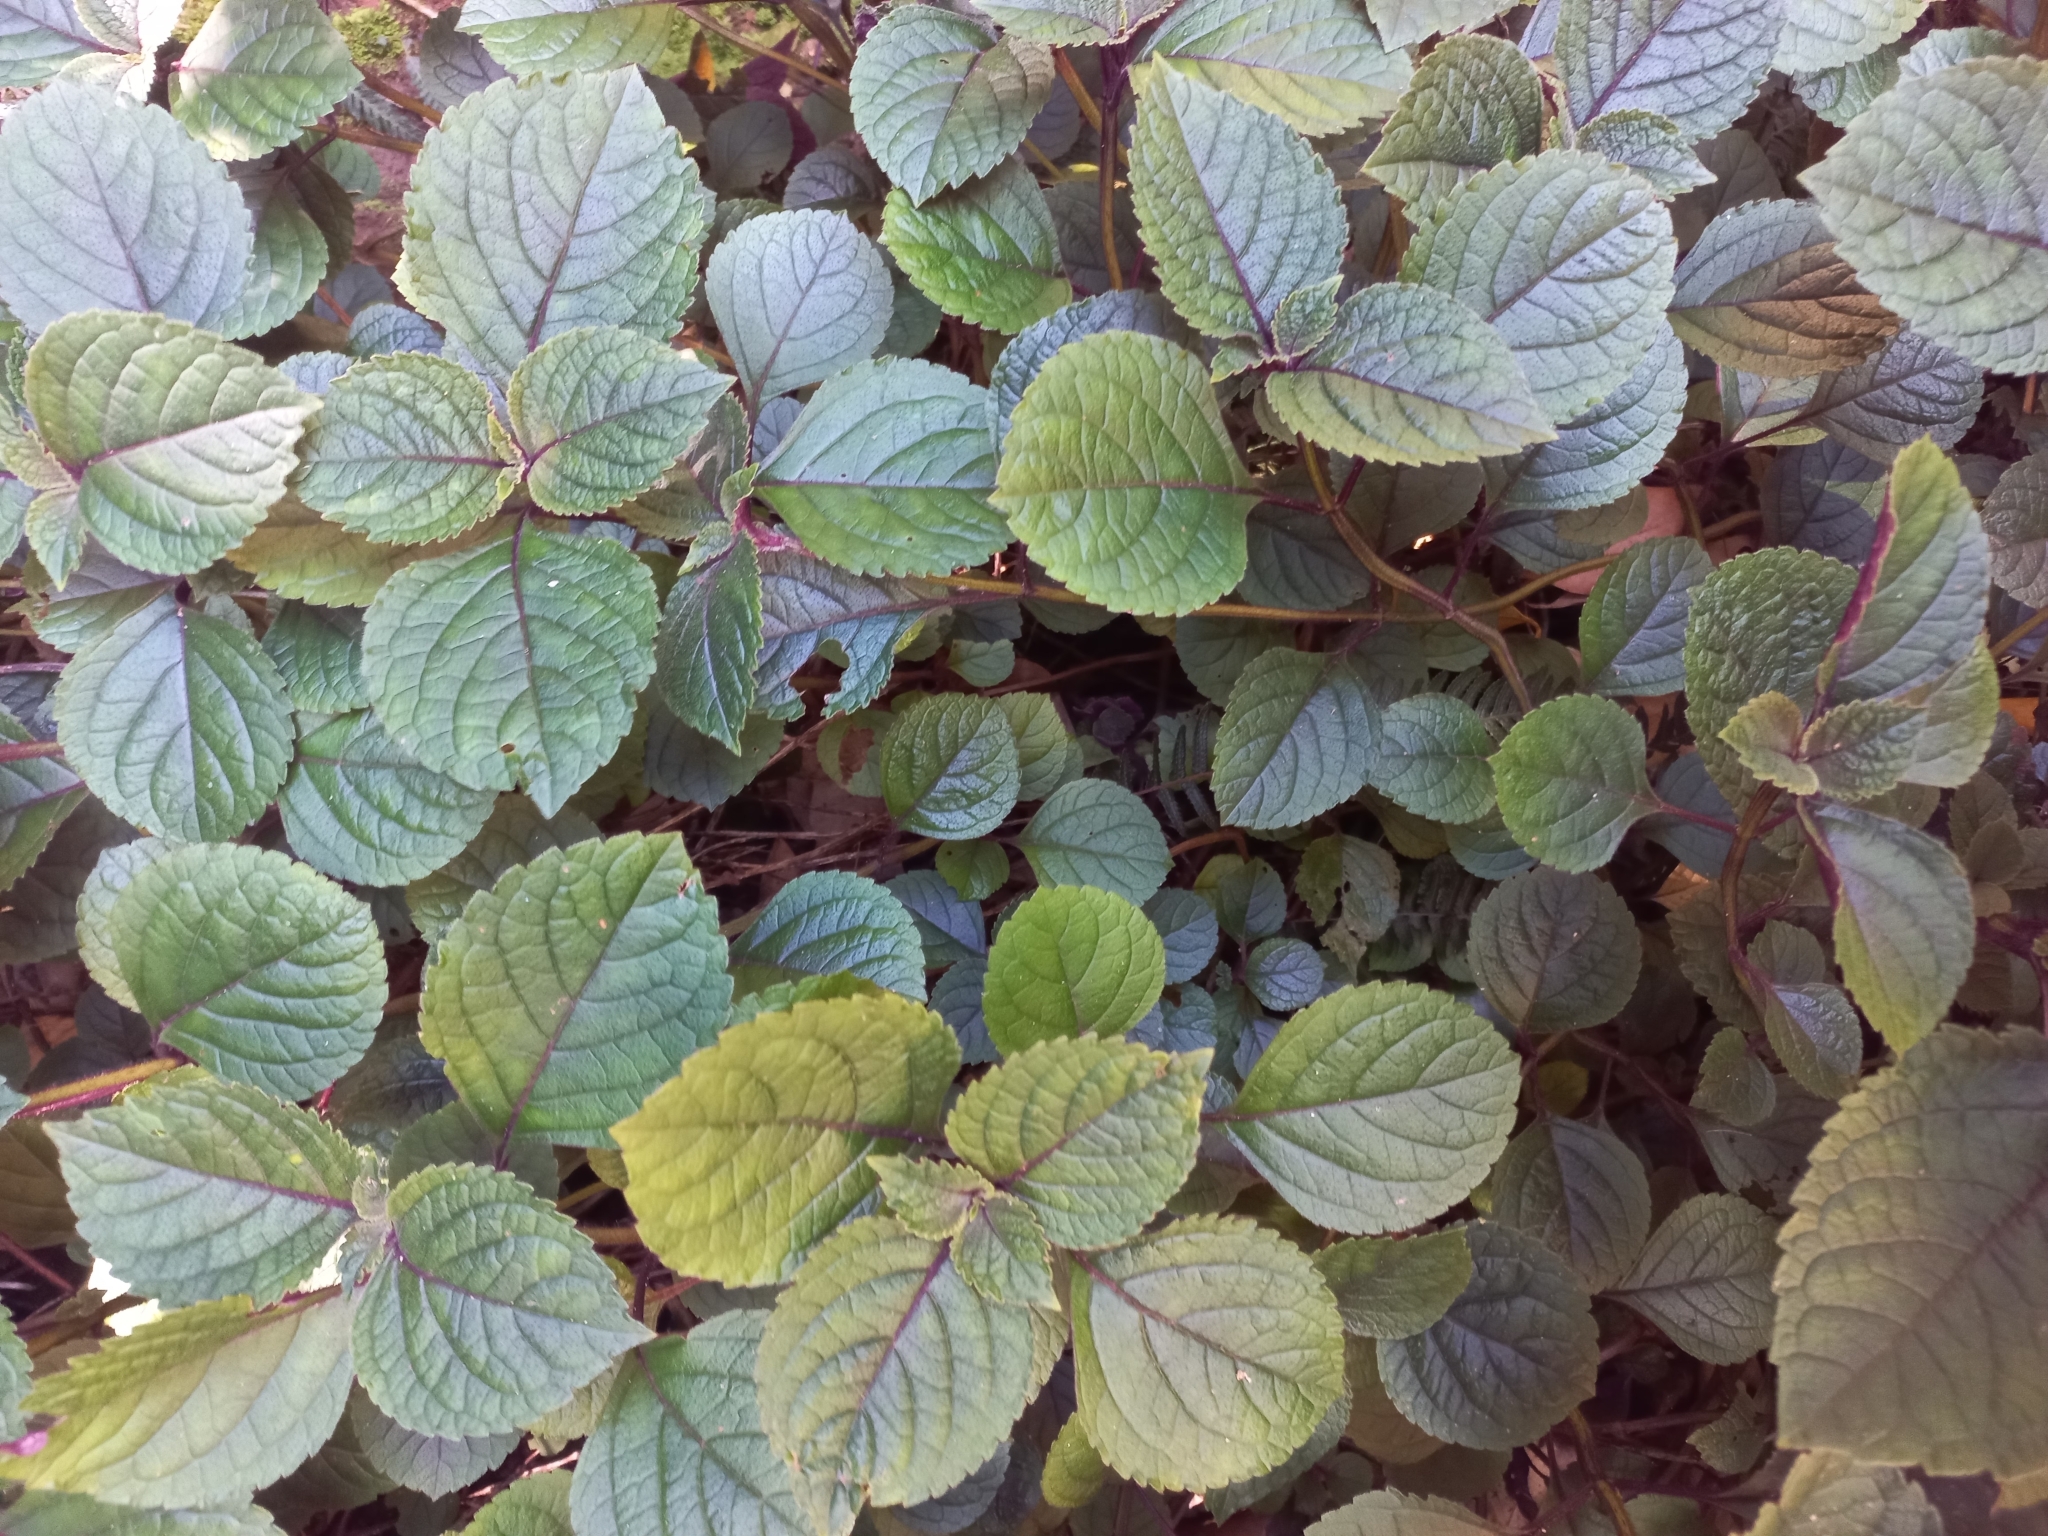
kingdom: Plantae
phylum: Tracheophyta
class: Magnoliopsida
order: Lamiales
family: Lamiaceae
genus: Plectranthus
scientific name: Plectranthus ciliatus
